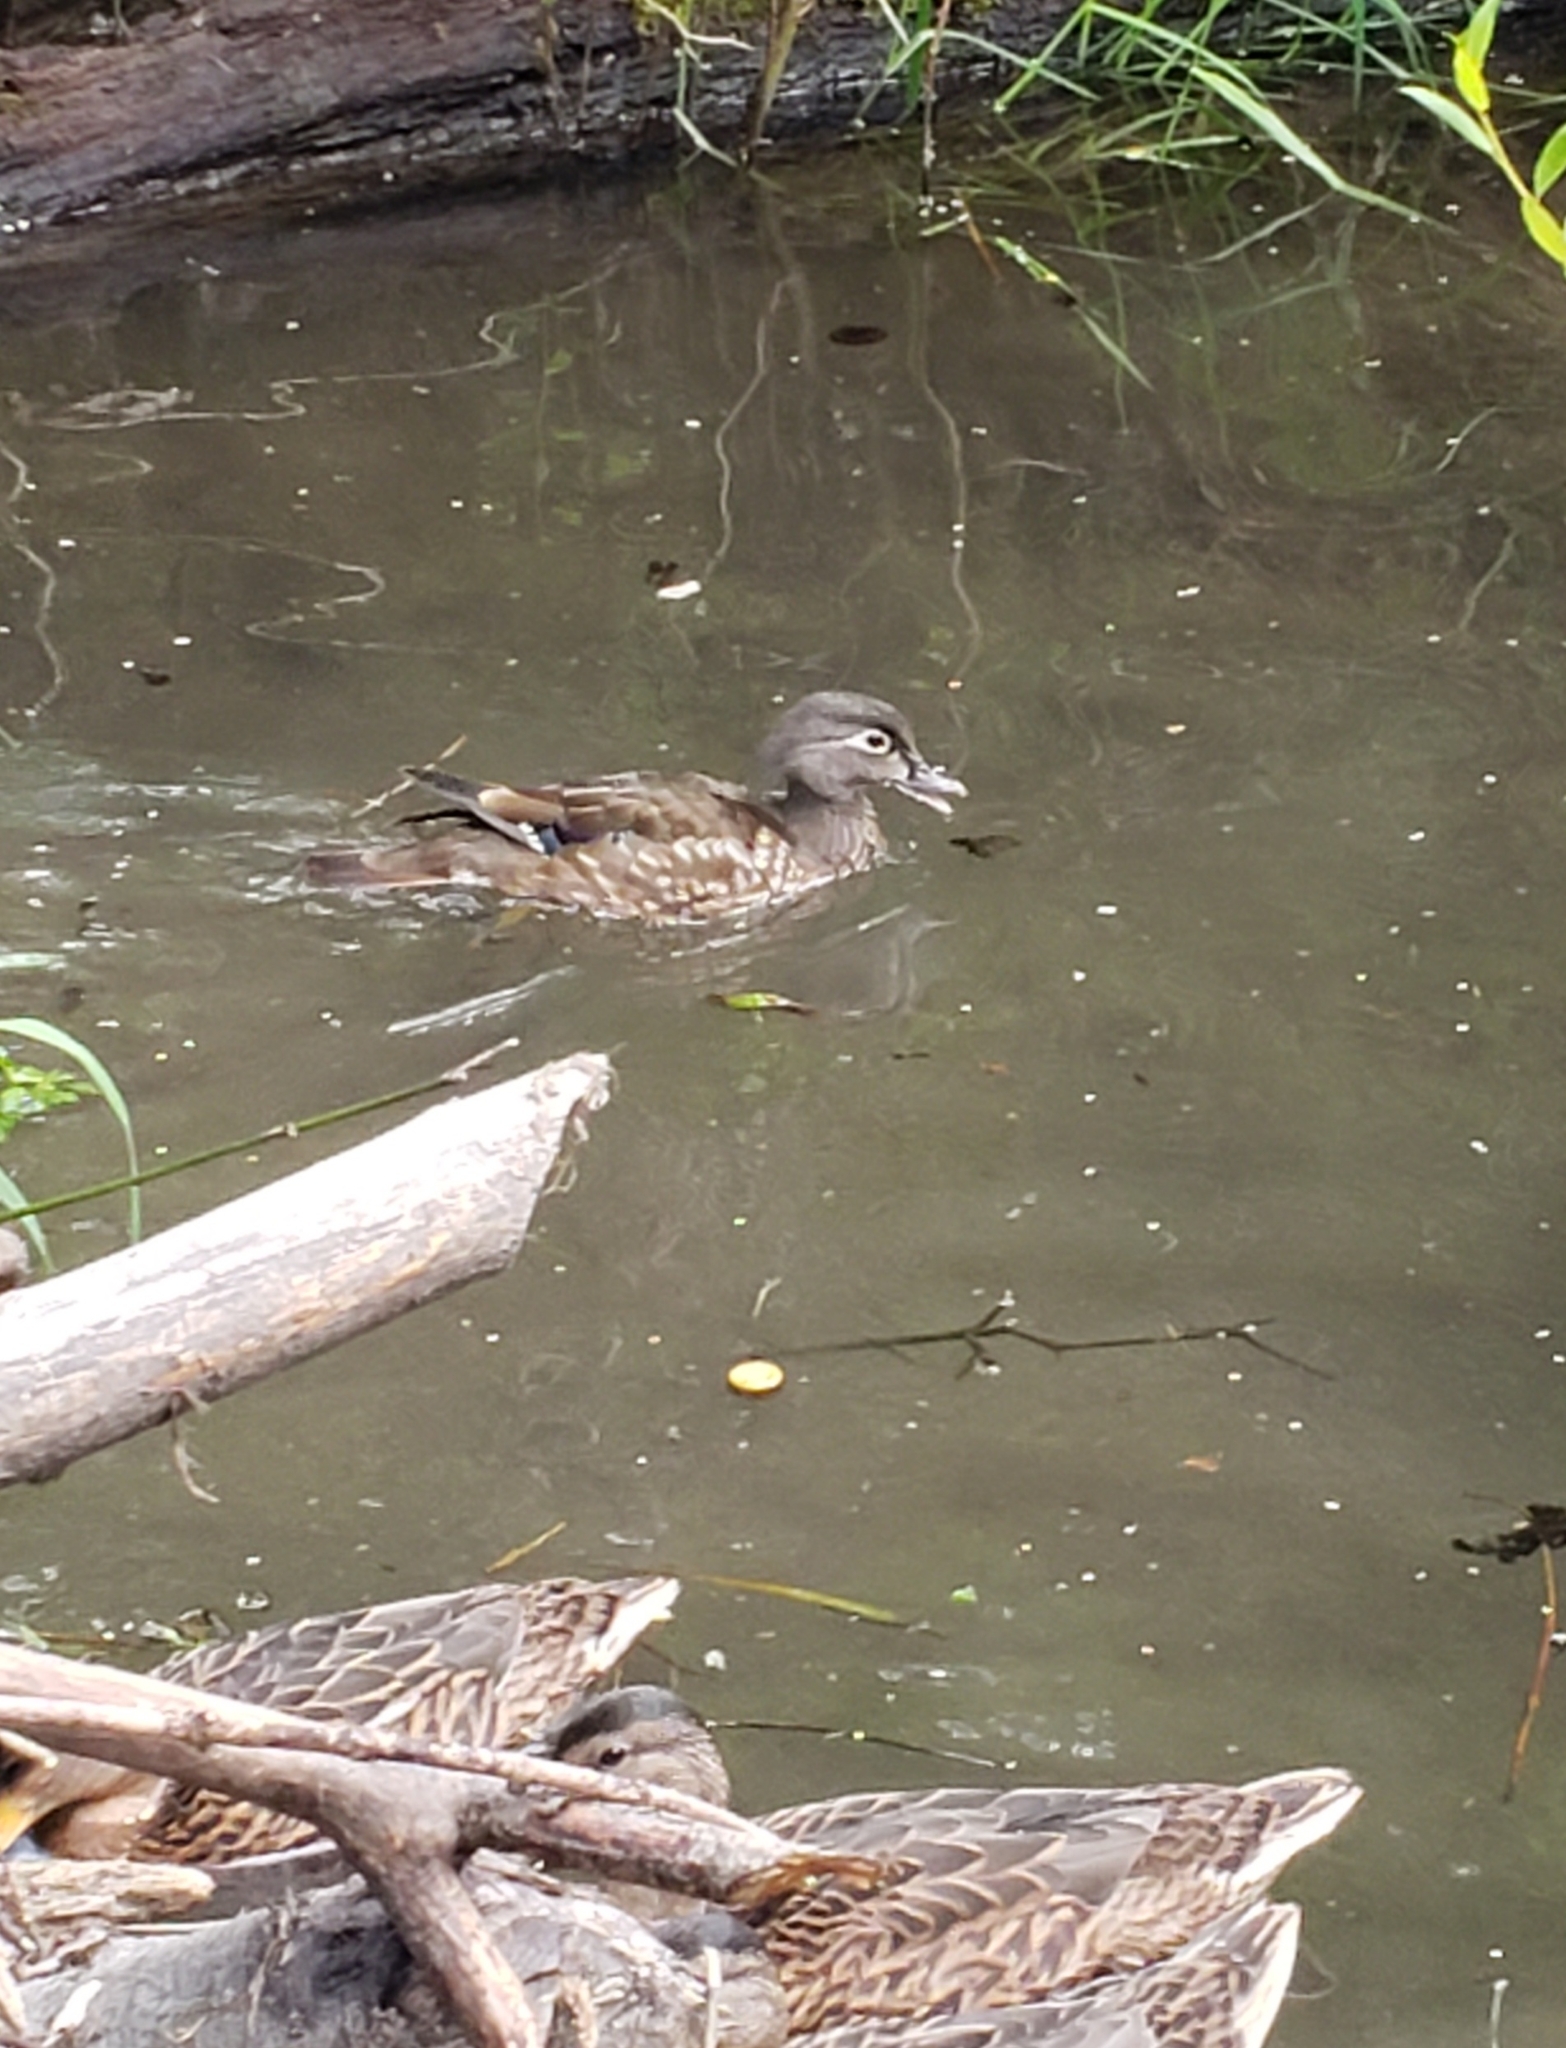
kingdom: Animalia
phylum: Chordata
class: Aves
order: Anseriformes
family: Anatidae
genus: Aix
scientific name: Aix sponsa
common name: Wood duck
